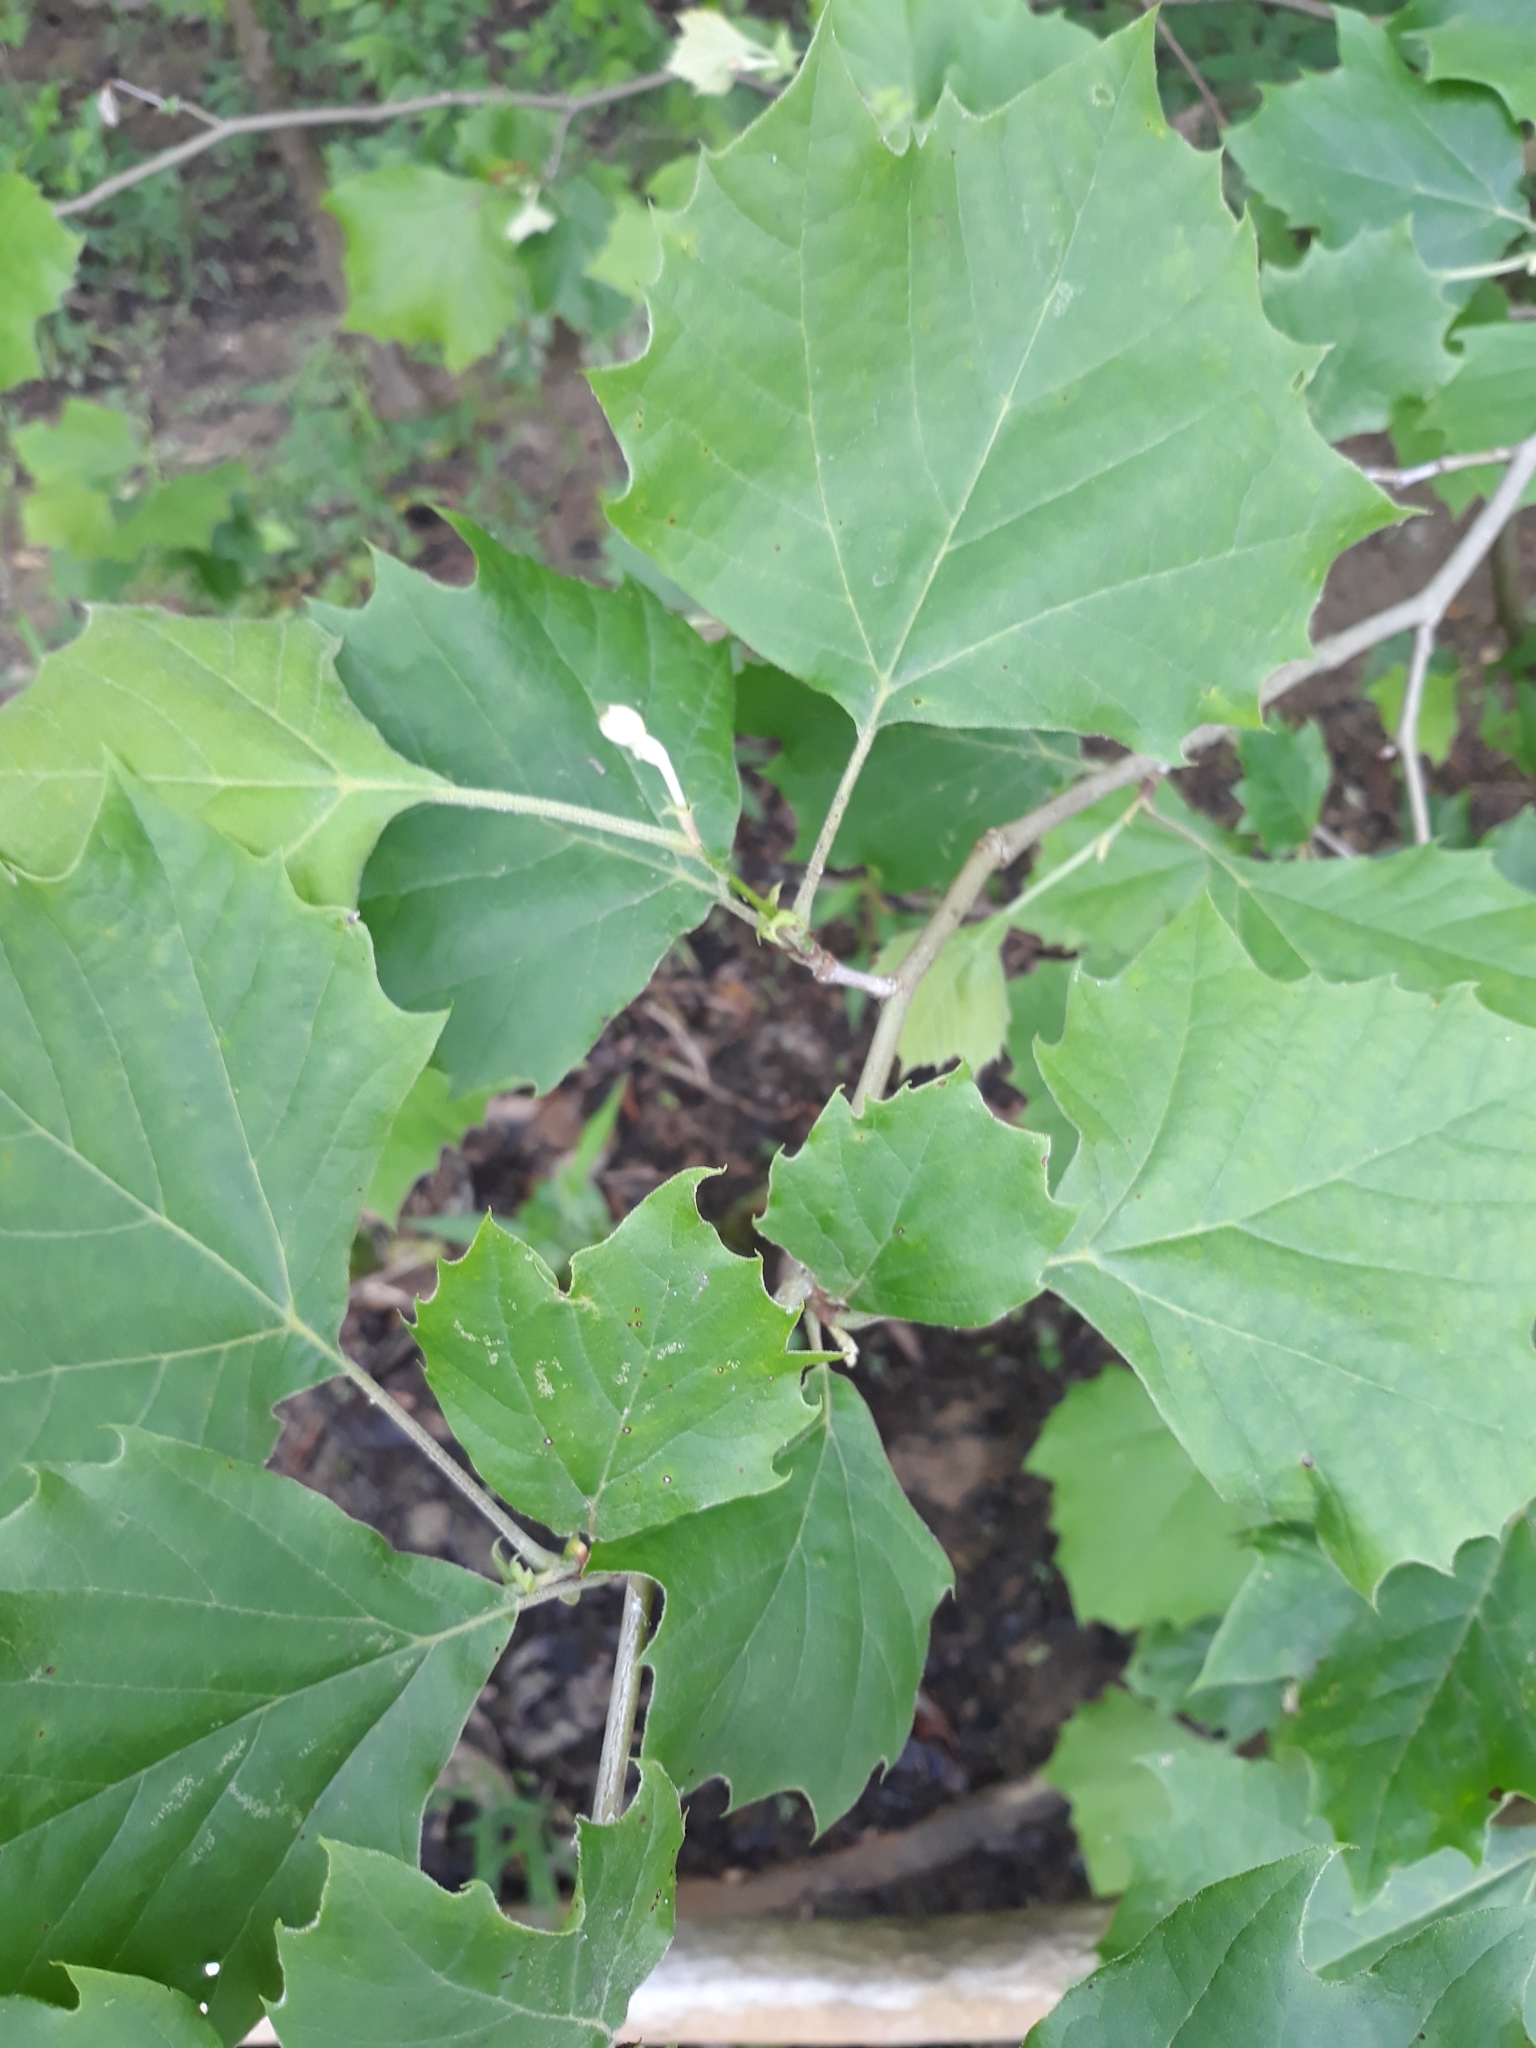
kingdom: Plantae
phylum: Tracheophyta
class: Magnoliopsida
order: Proteales
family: Platanaceae
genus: Platanus
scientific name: Platanus occidentalis
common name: American sycamore
